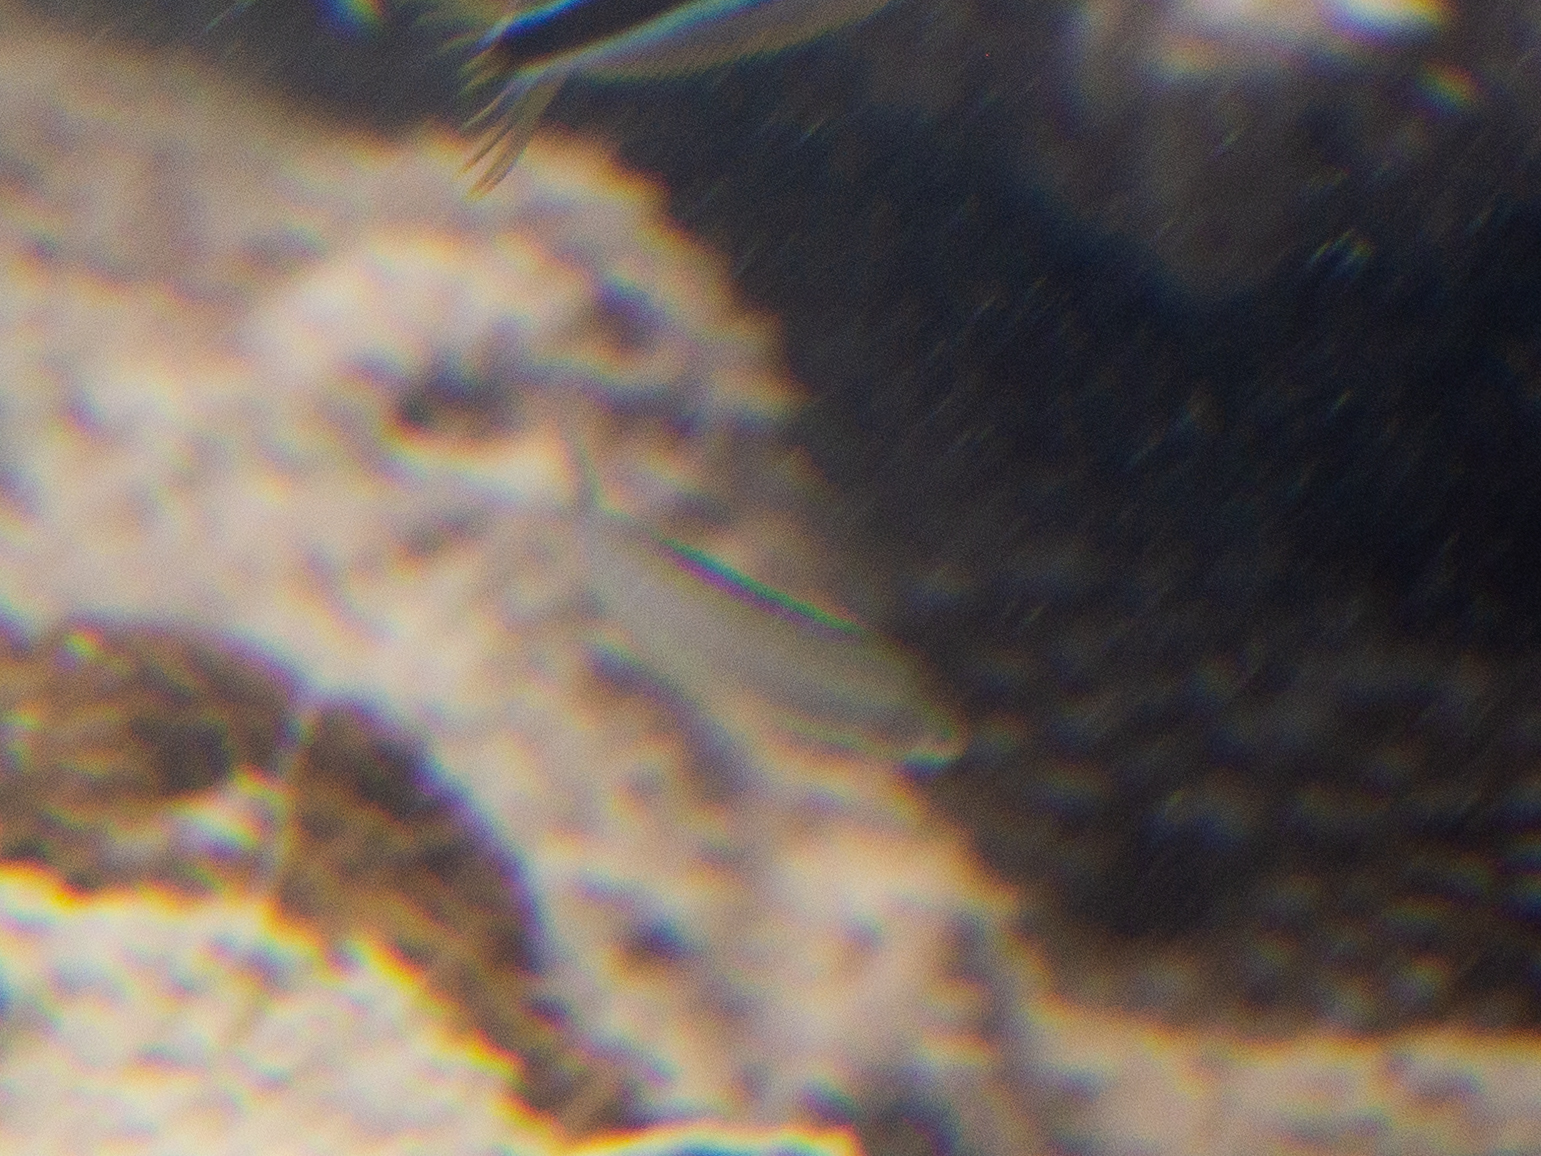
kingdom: Animalia
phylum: Chordata
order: Perciformes
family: Blenniidae
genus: Plagiotremus
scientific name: Plagiotremus phenax
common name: Imposter fangblenny
